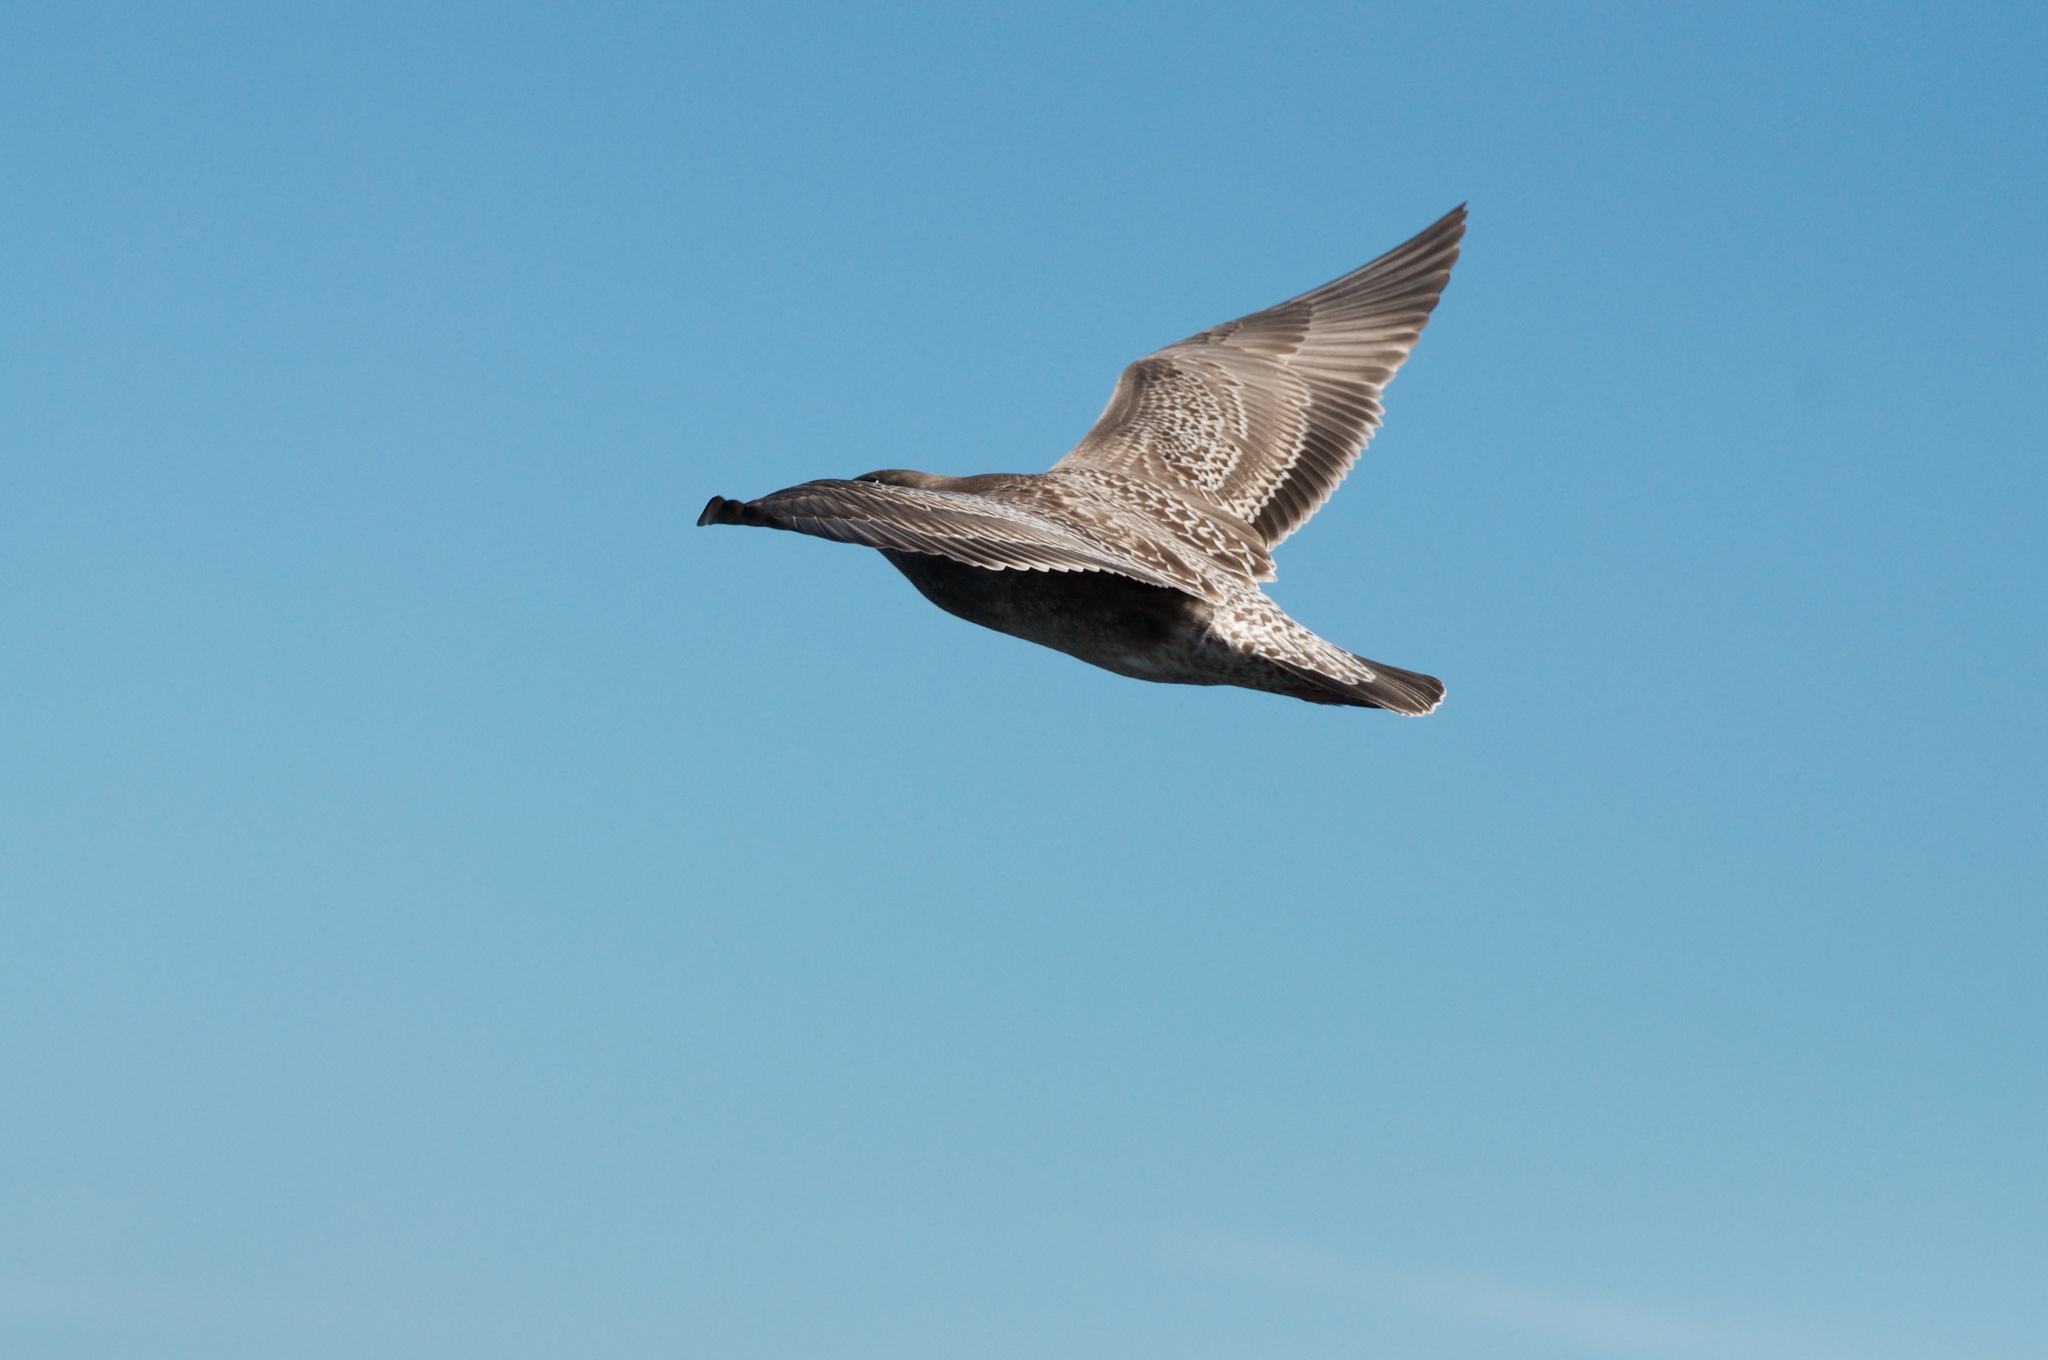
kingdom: Animalia
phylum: Chordata
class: Aves
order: Charadriiformes
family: Laridae
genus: Larus
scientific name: Larus
